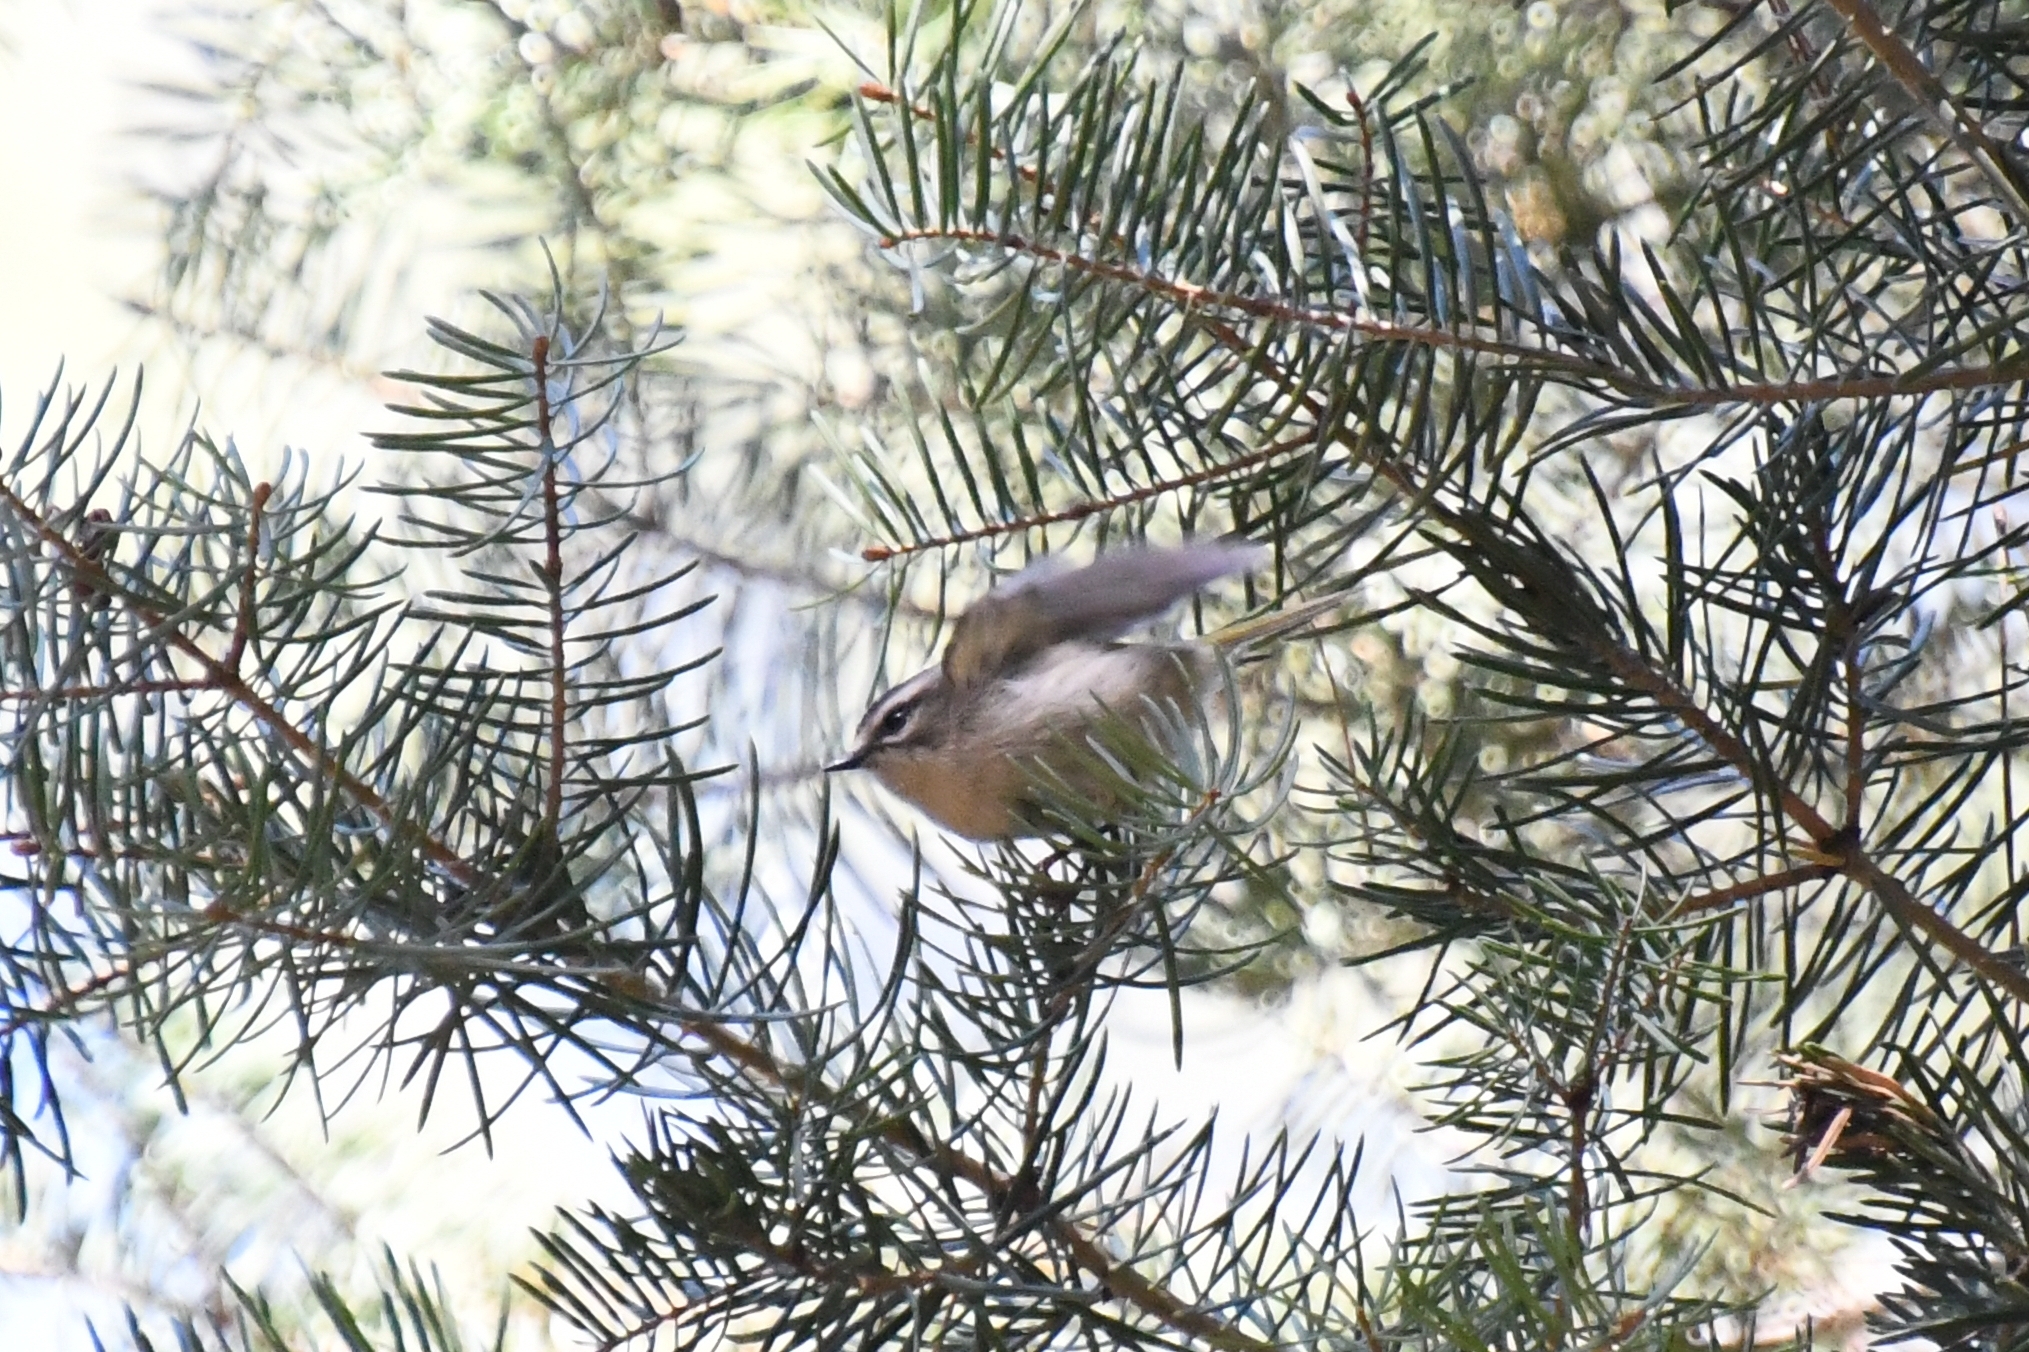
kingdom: Animalia
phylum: Chordata
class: Aves
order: Passeriformes
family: Regulidae
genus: Regulus
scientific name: Regulus satrapa
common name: Golden-crowned kinglet
